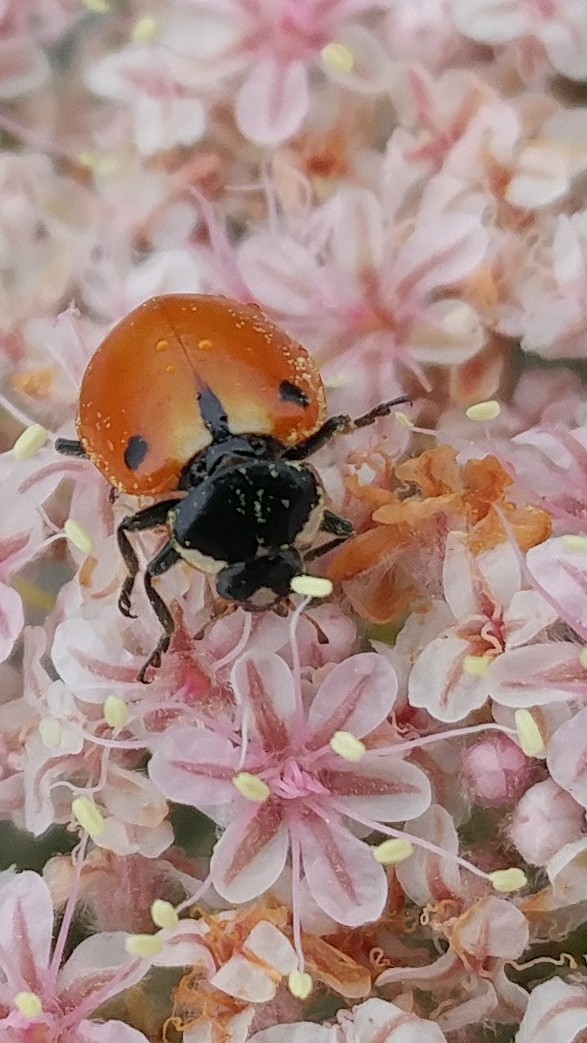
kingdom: Animalia
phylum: Arthropoda
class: Insecta
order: Coleoptera
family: Coccinellidae
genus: Hippodamia
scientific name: Hippodamia quinquesignata
